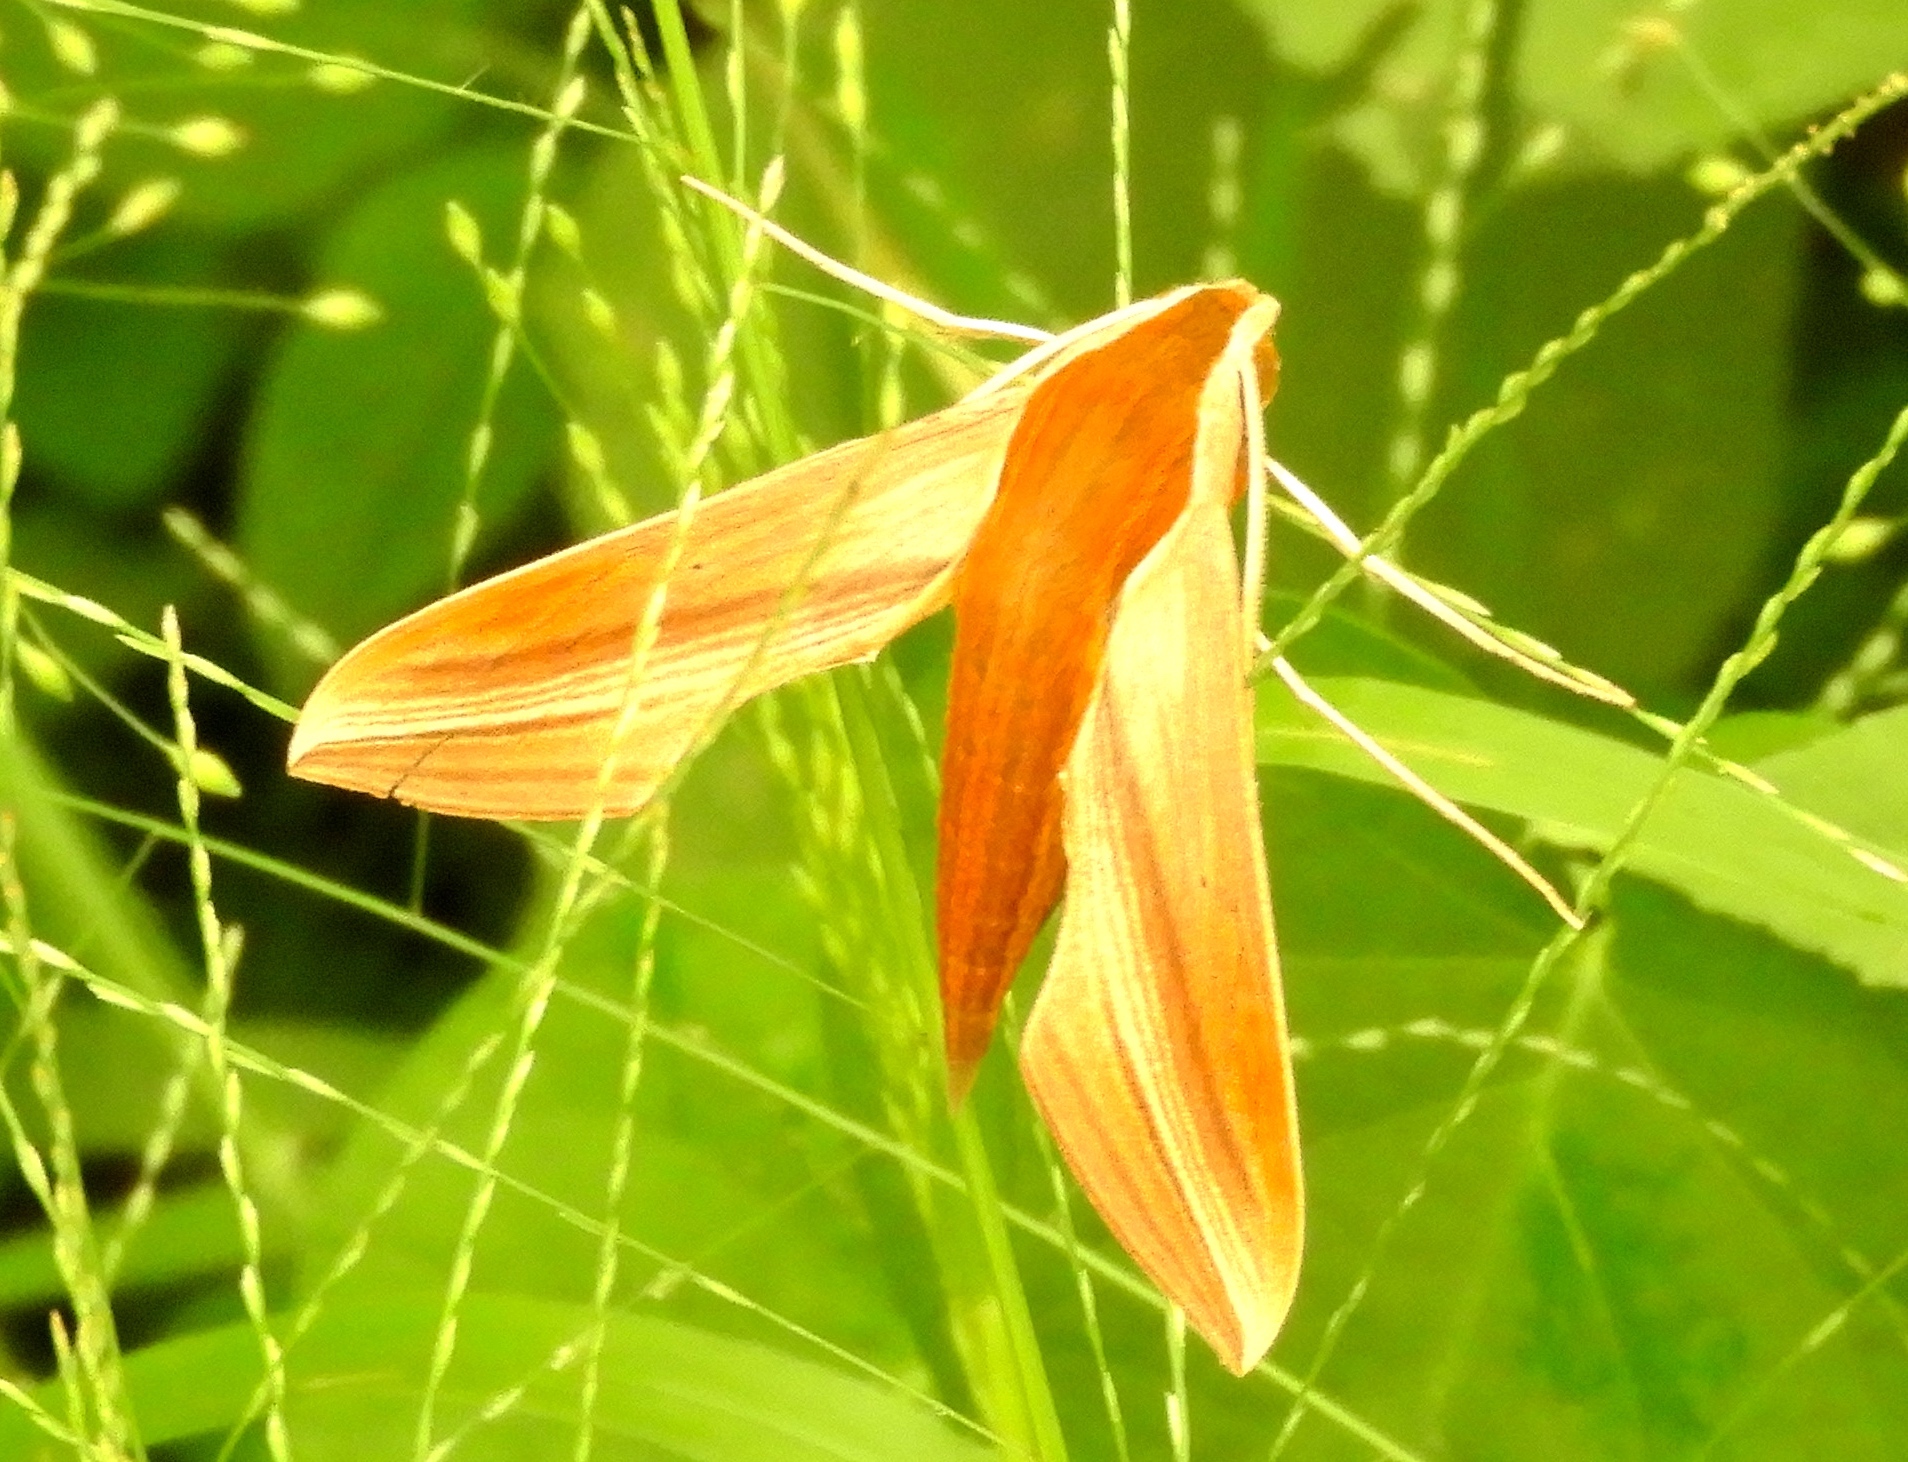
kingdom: Animalia
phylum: Arthropoda
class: Insecta
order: Lepidoptera
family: Sphingidae
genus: Xylophanes
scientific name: Xylophanes tersa
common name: Tersa sphinx
